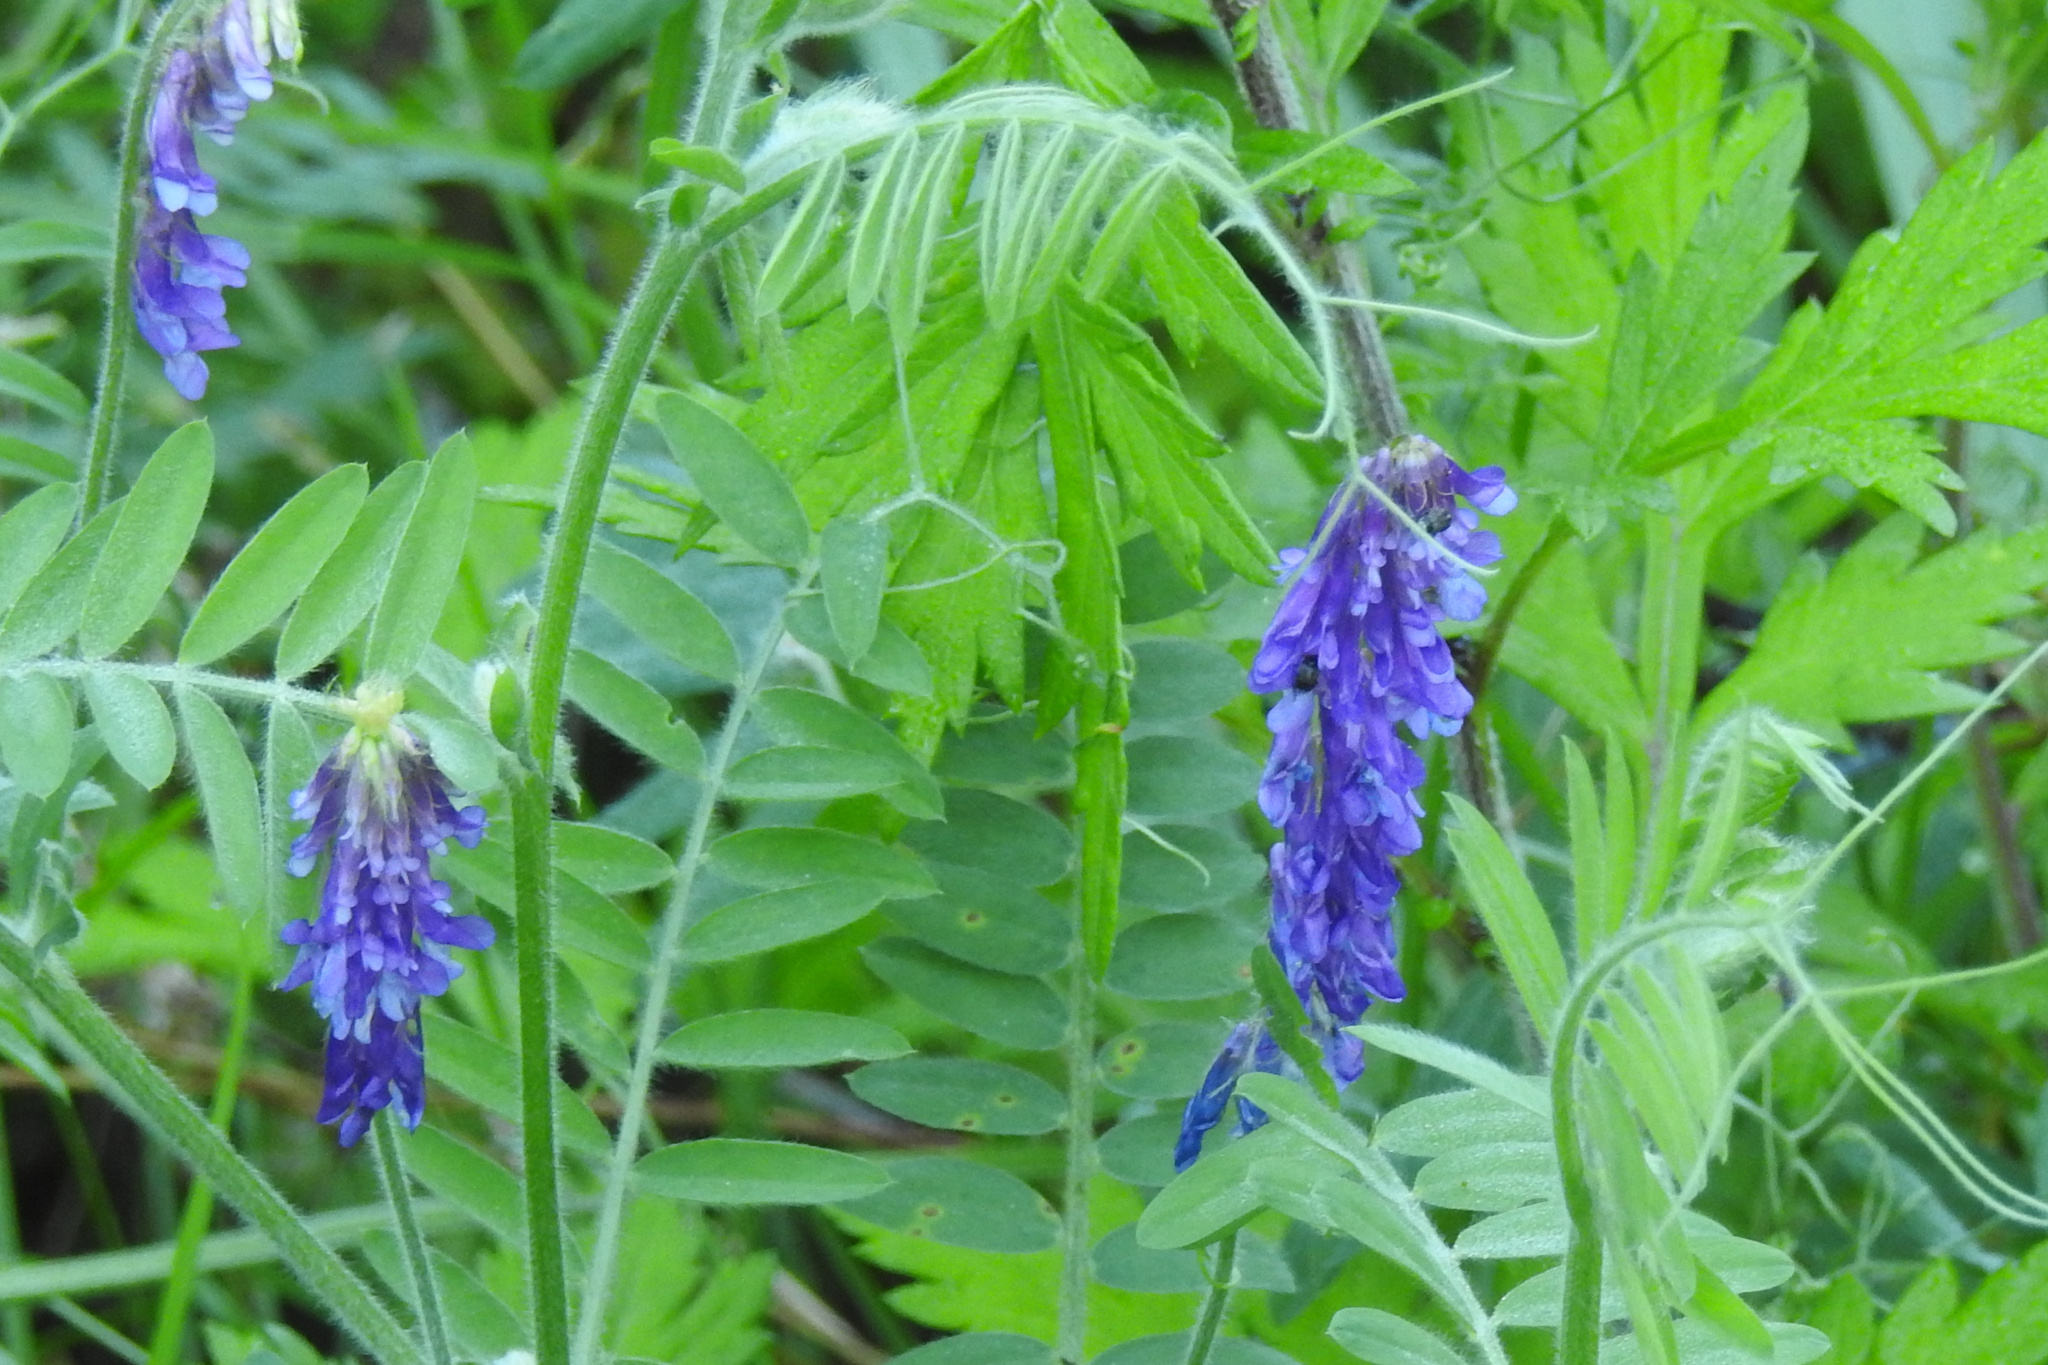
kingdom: Plantae
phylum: Tracheophyta
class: Magnoliopsida
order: Fabales
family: Fabaceae
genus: Vicia
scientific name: Vicia villosa
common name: Fodder vetch
